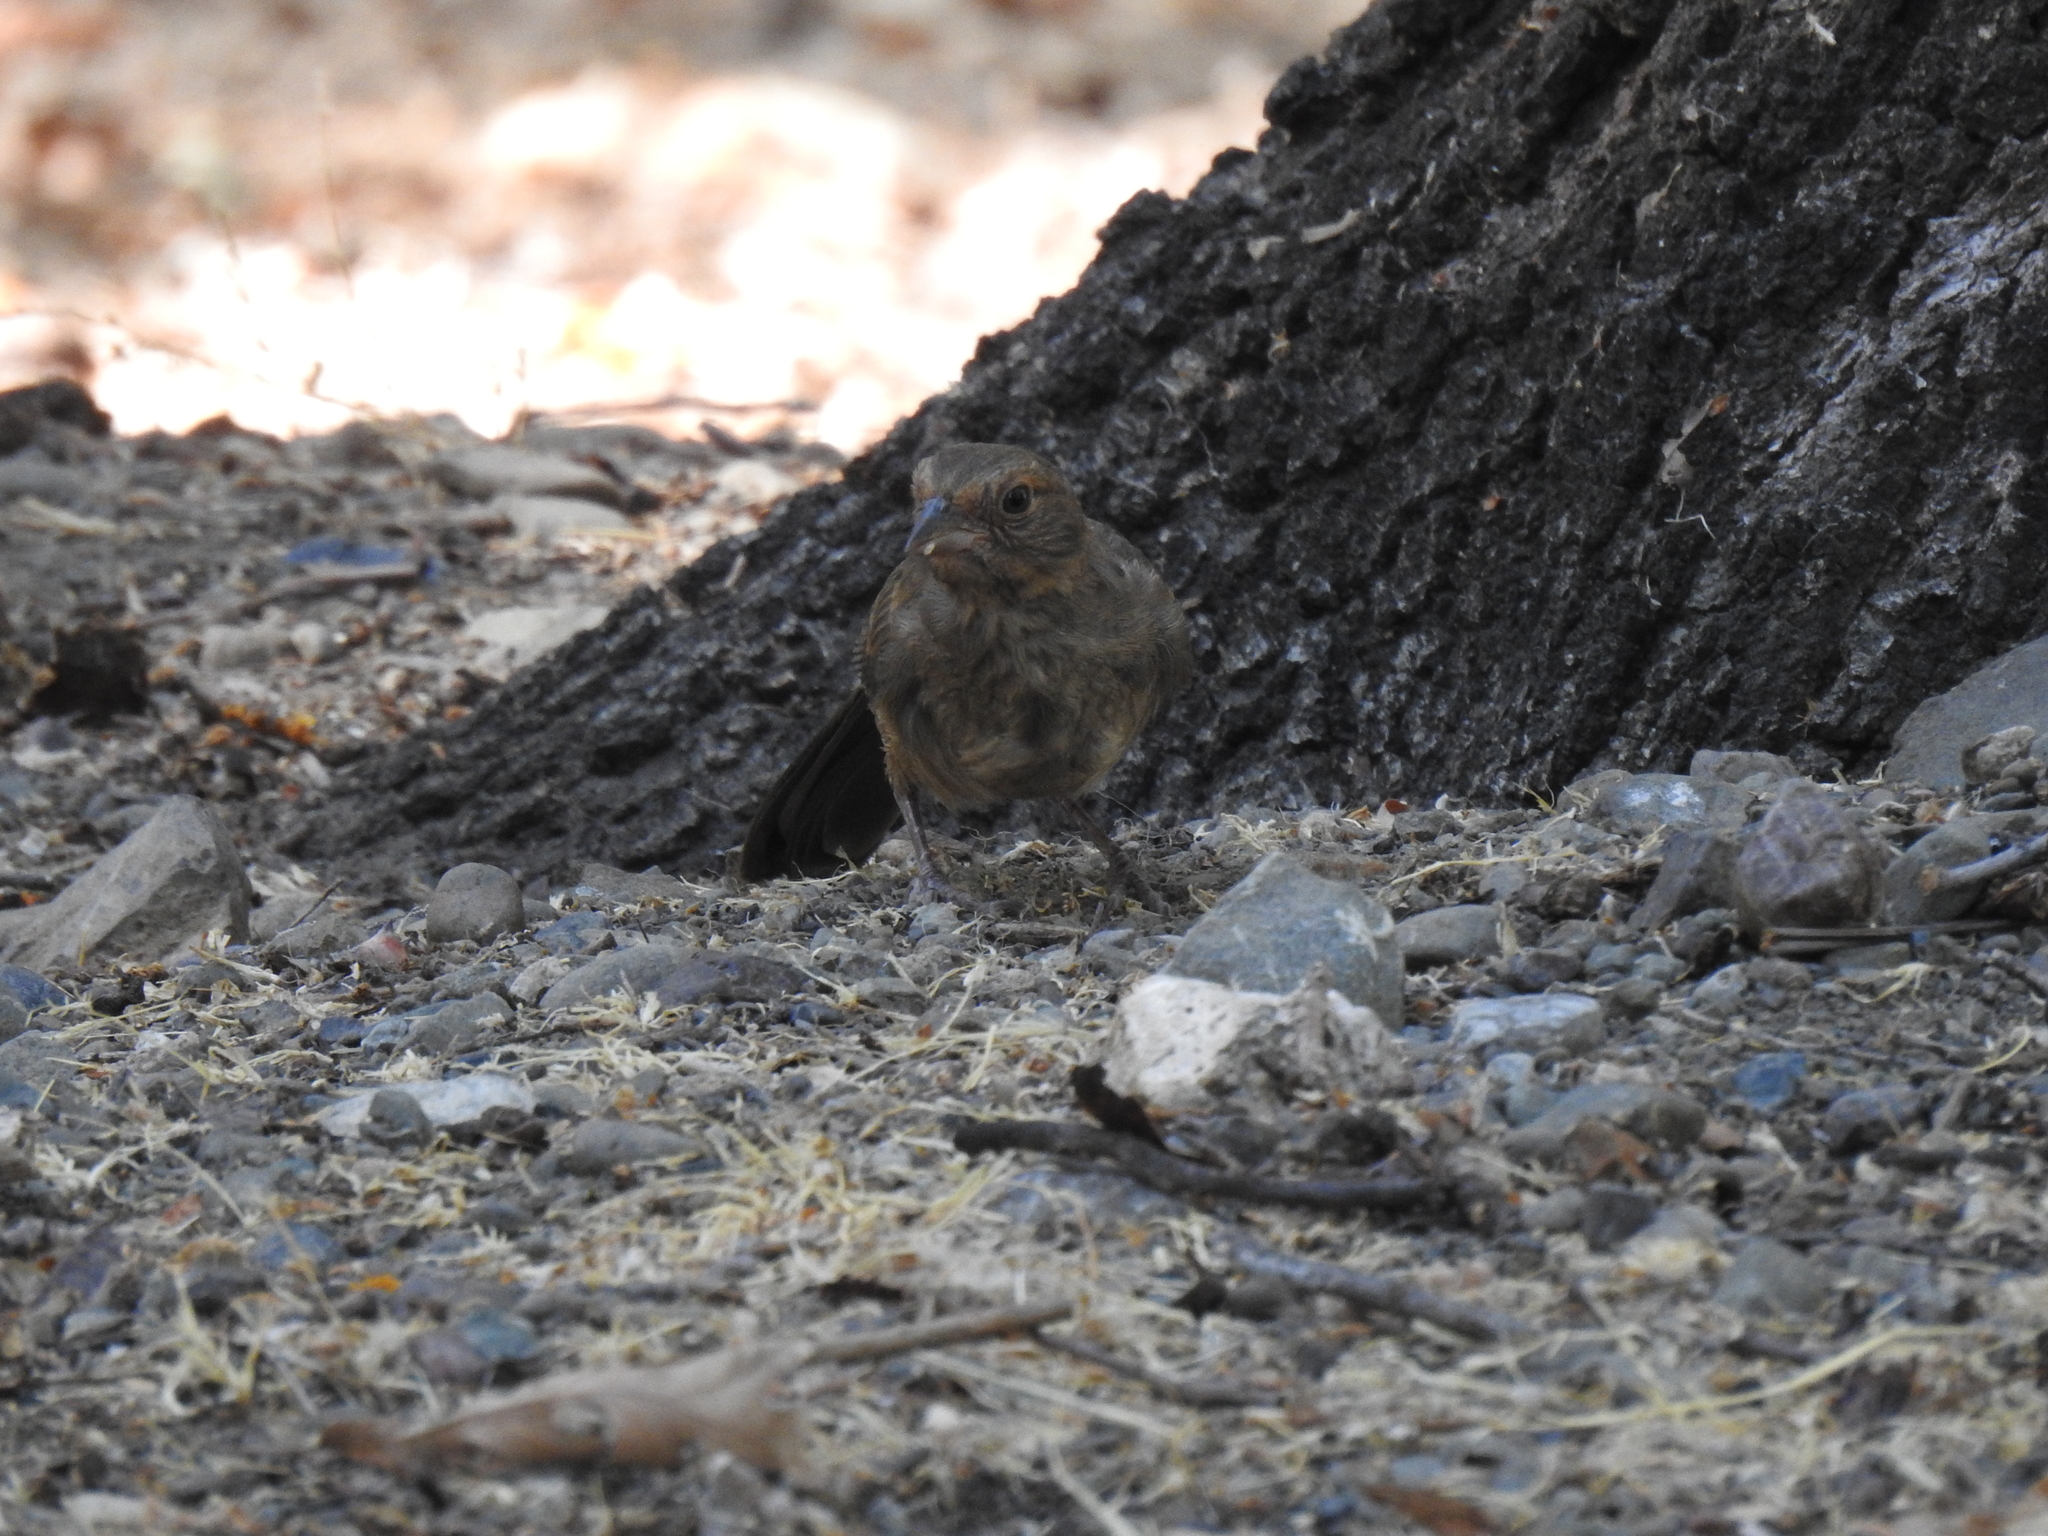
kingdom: Animalia
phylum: Chordata
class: Aves
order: Passeriformes
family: Passerellidae
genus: Melozone
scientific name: Melozone crissalis
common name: California towhee
